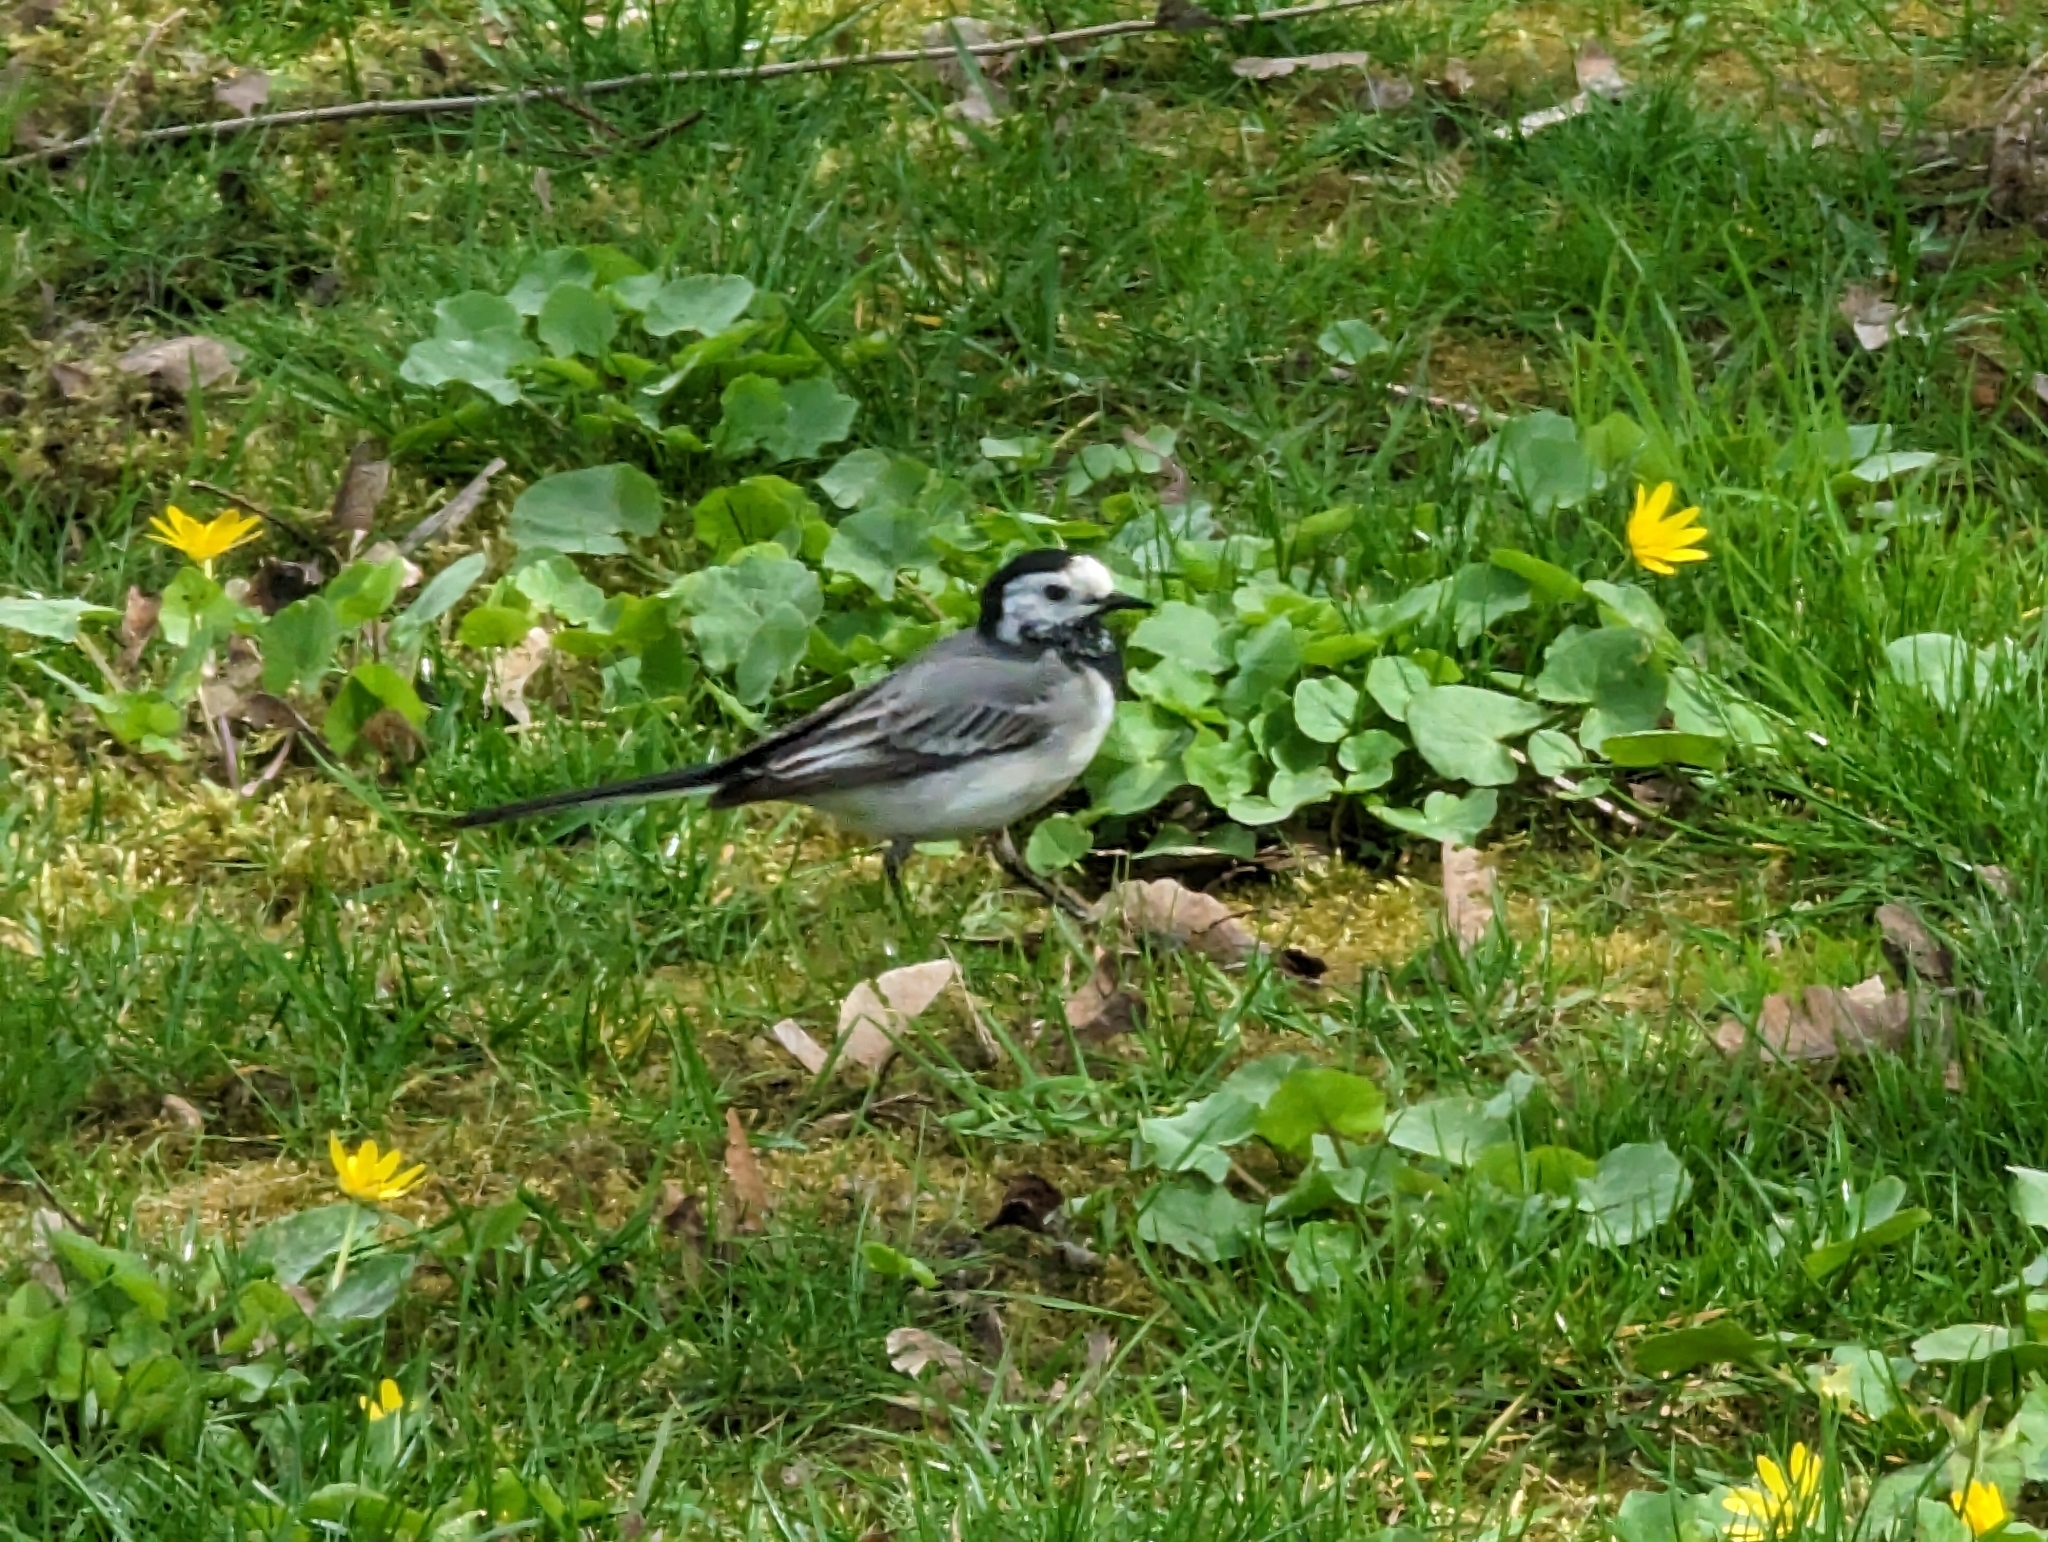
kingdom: Animalia
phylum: Chordata
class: Aves
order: Passeriformes
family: Motacillidae
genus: Motacilla
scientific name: Motacilla alba
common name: White wagtail
